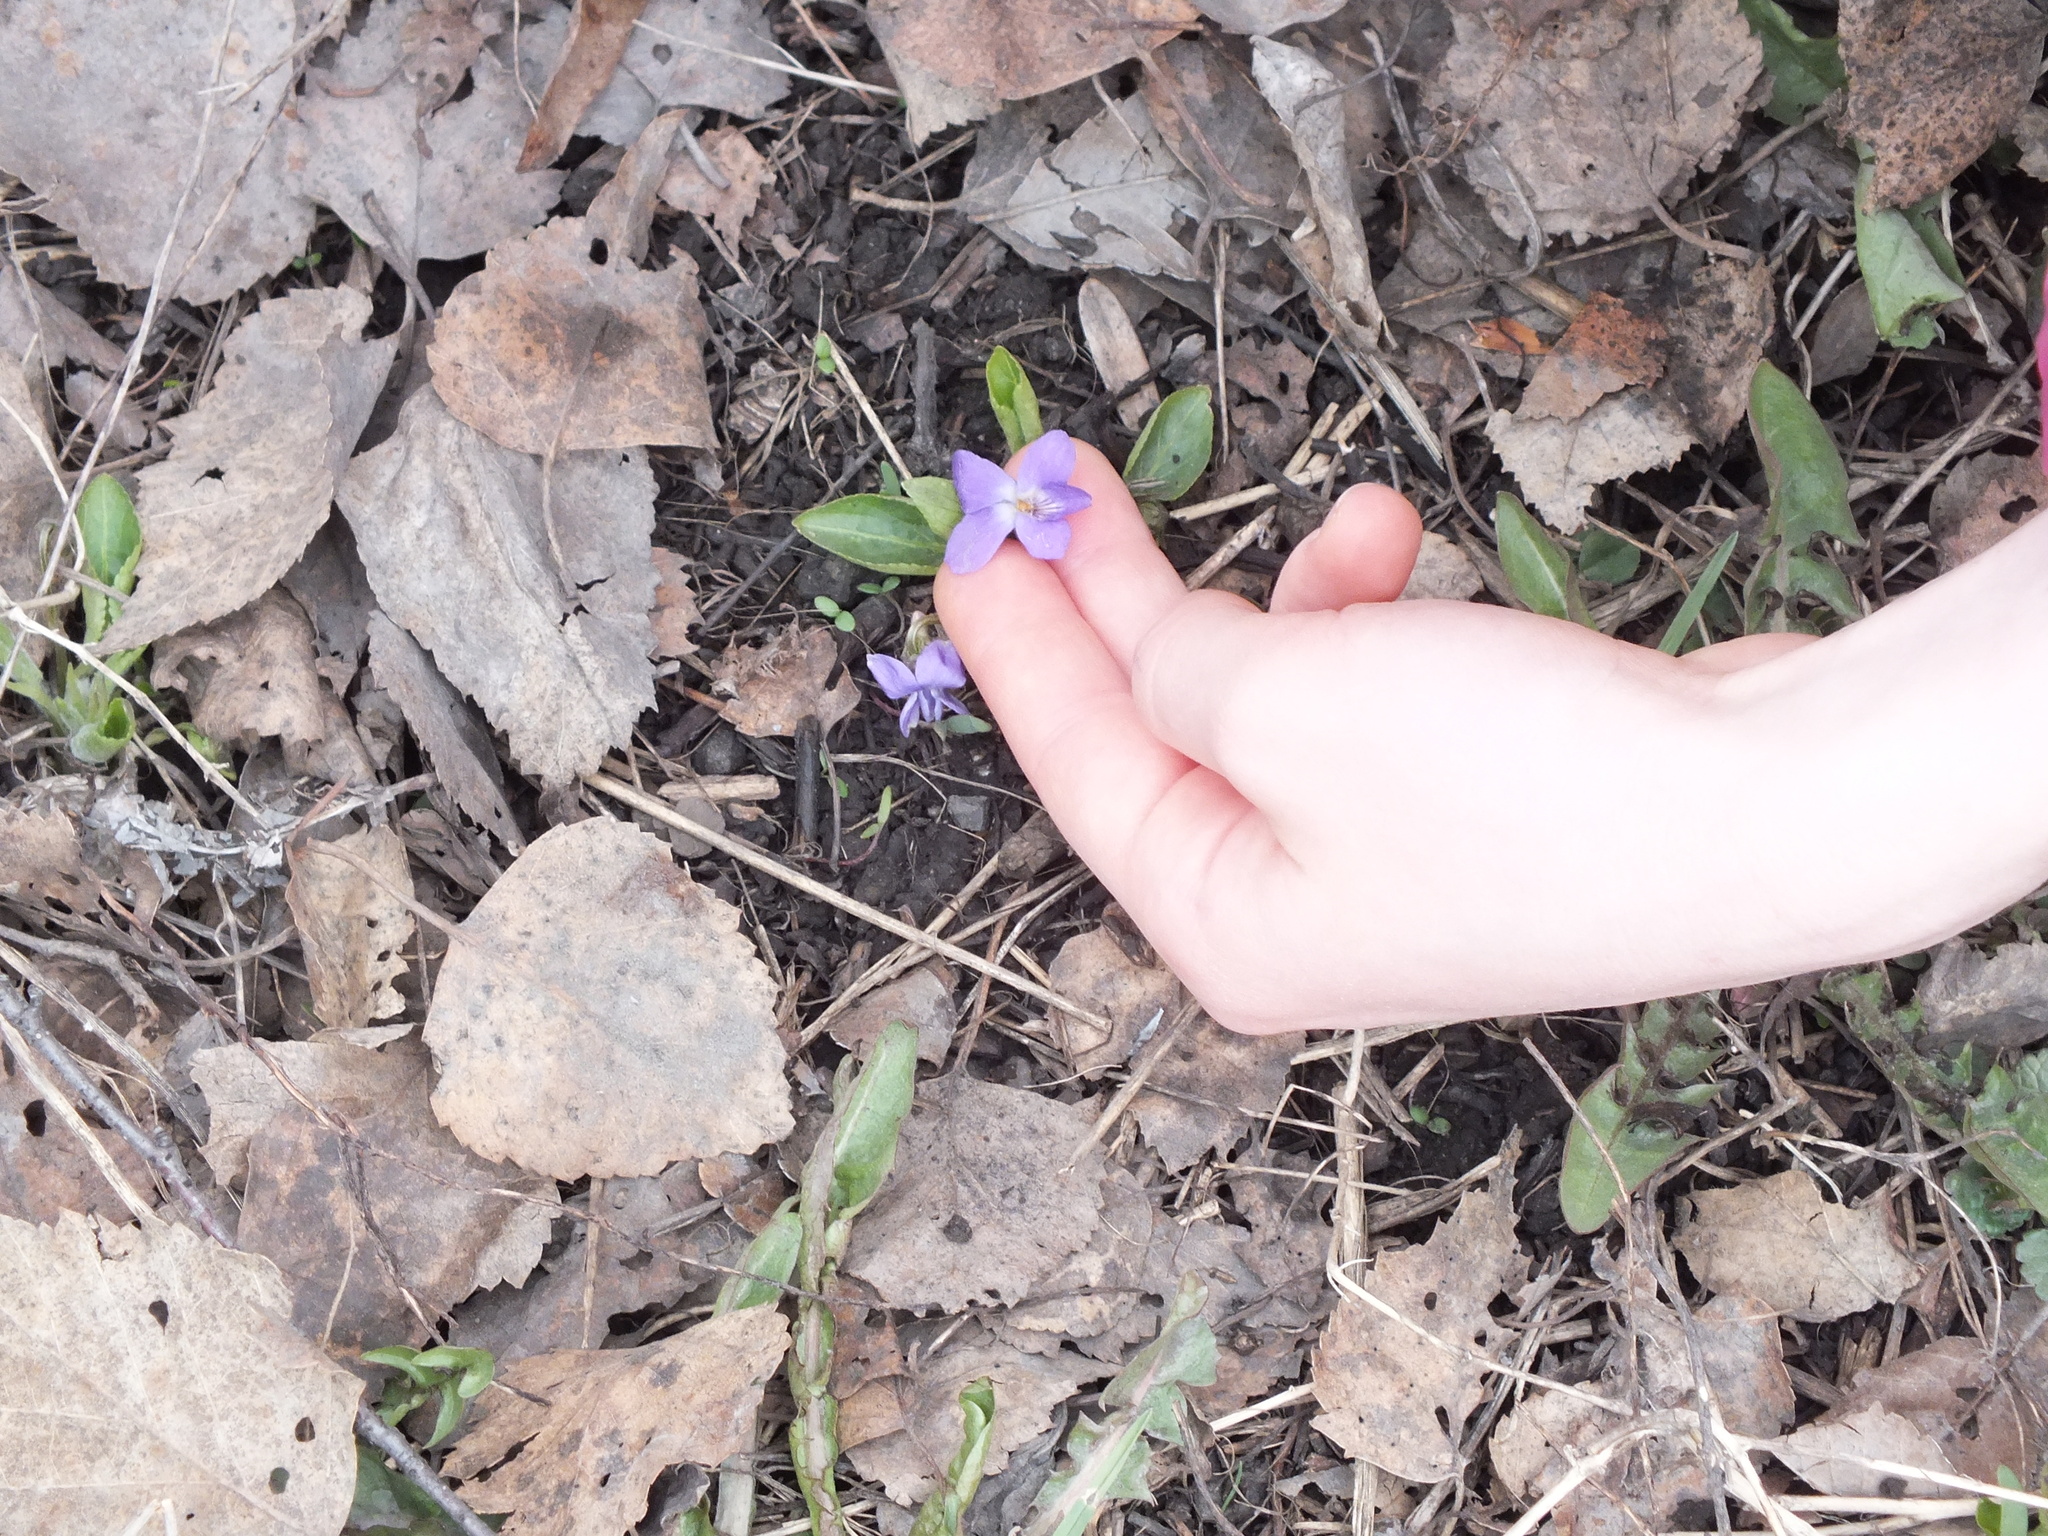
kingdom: Plantae
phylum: Tracheophyta
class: Magnoliopsida
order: Malpighiales
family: Violaceae
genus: Viola
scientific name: Viola hirta
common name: Hairy violet
